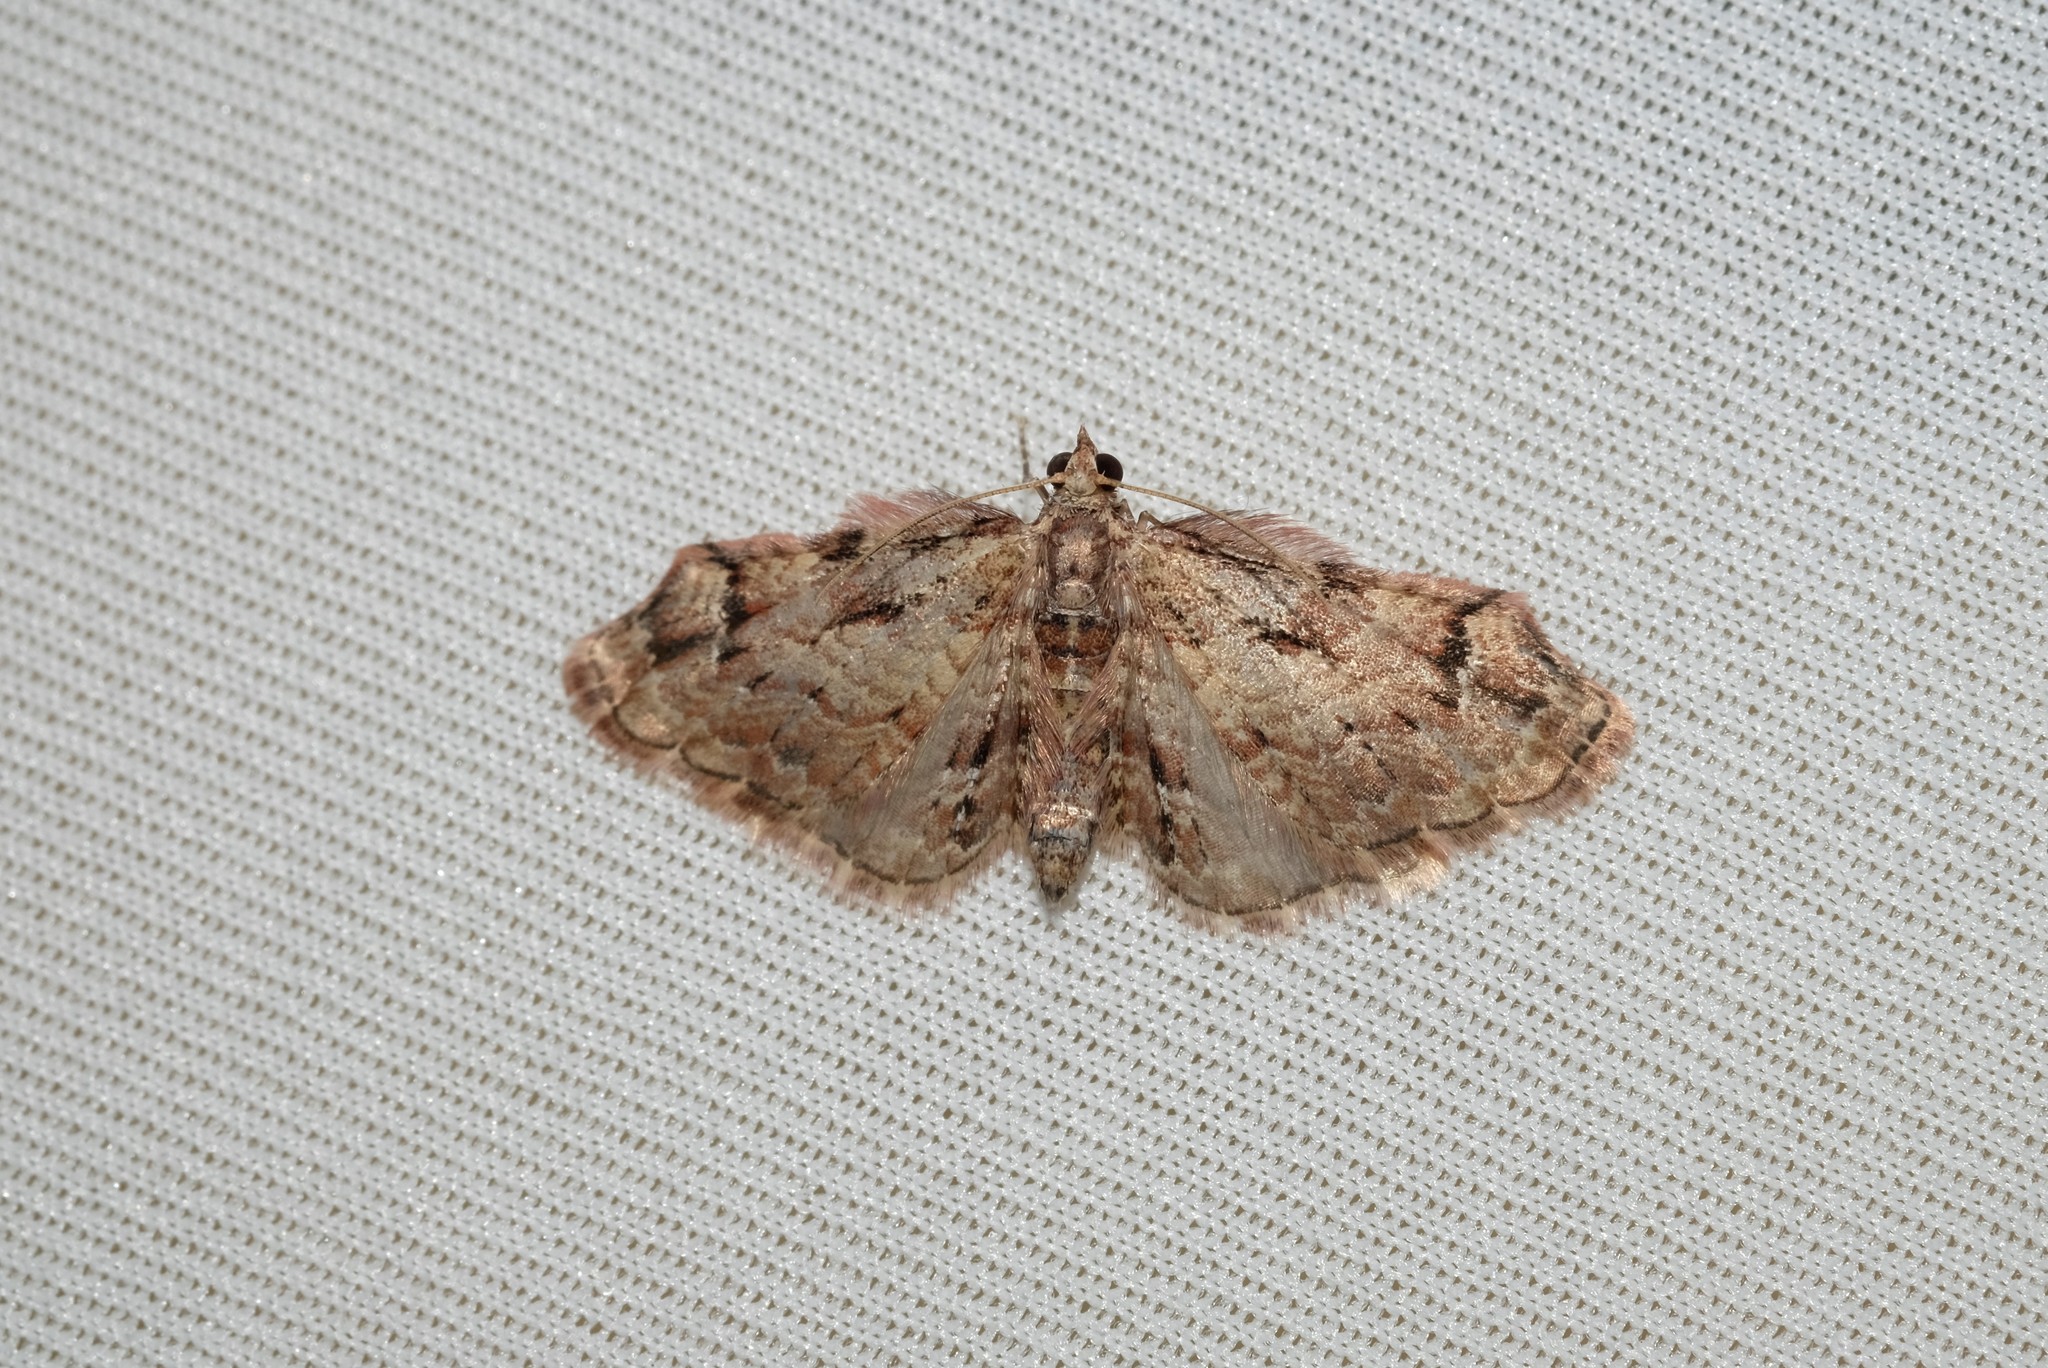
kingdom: Animalia
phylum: Arthropoda
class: Insecta
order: Lepidoptera
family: Geometridae
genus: Chloroclystis
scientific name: Chloroclystis approximata
